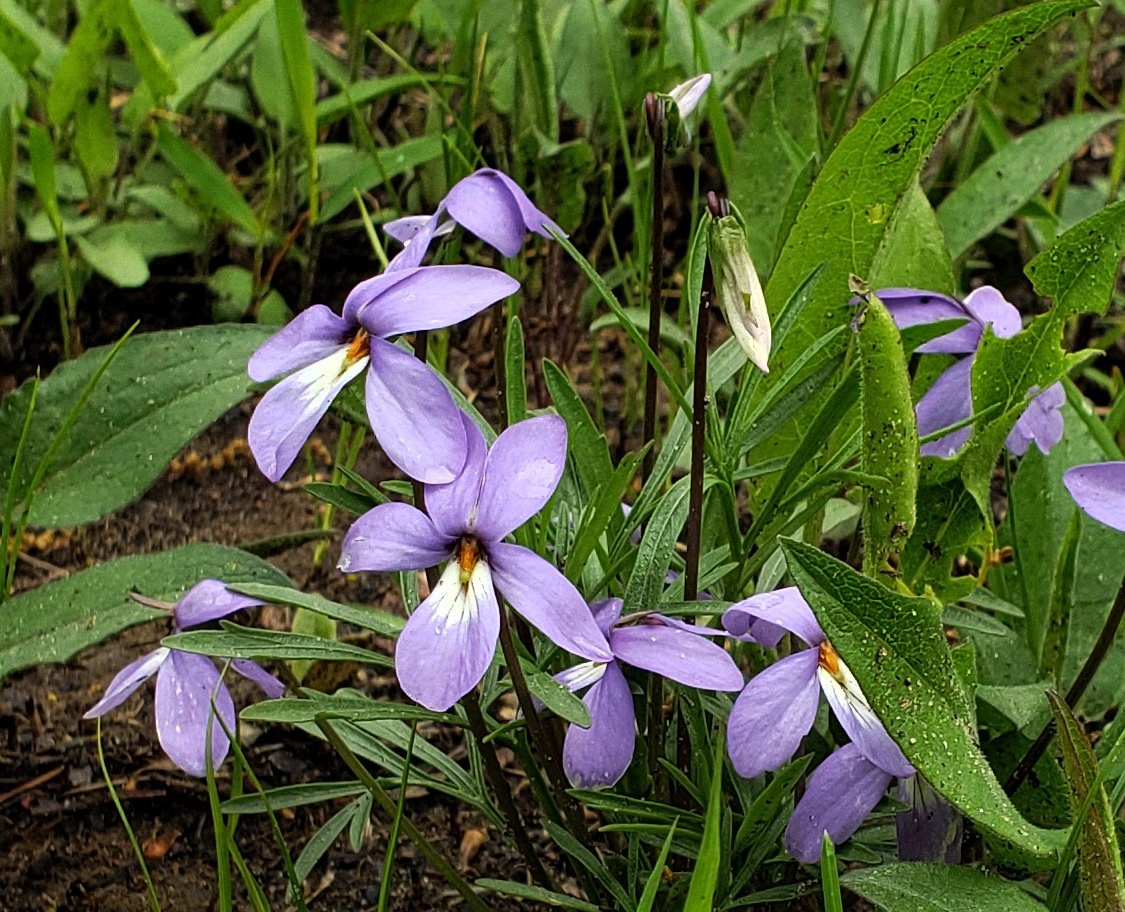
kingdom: Plantae
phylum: Tracheophyta
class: Magnoliopsida
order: Malpighiales
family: Violaceae
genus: Viola
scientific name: Viola pedata
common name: Pansy violet
